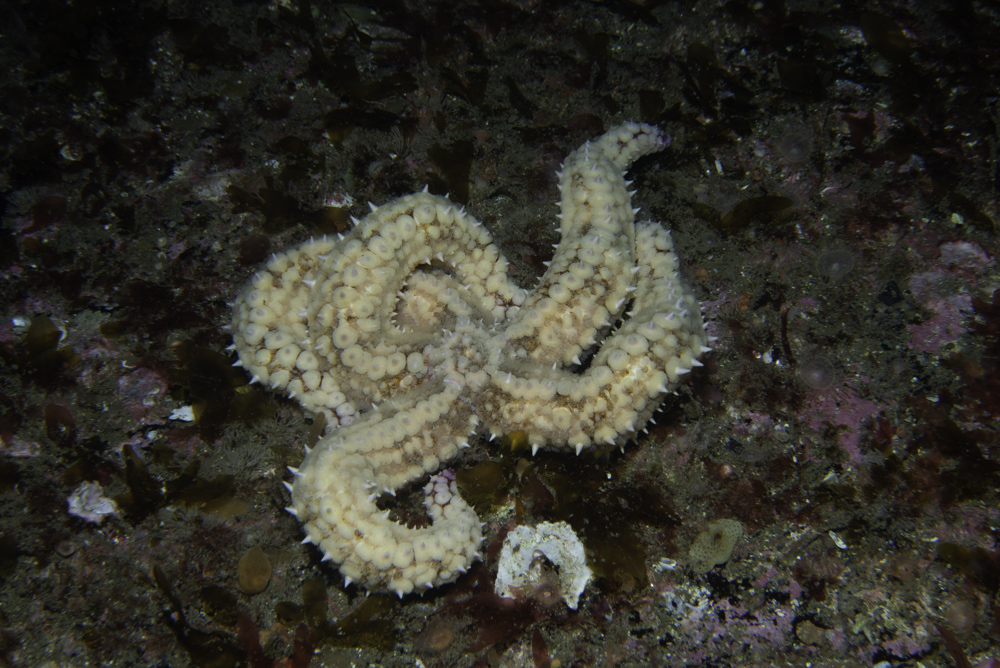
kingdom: Animalia
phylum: Echinodermata
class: Asteroidea
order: Forcipulatida
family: Asteriidae
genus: Marthasterias
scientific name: Marthasterias glacialis
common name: Spiny starfish
